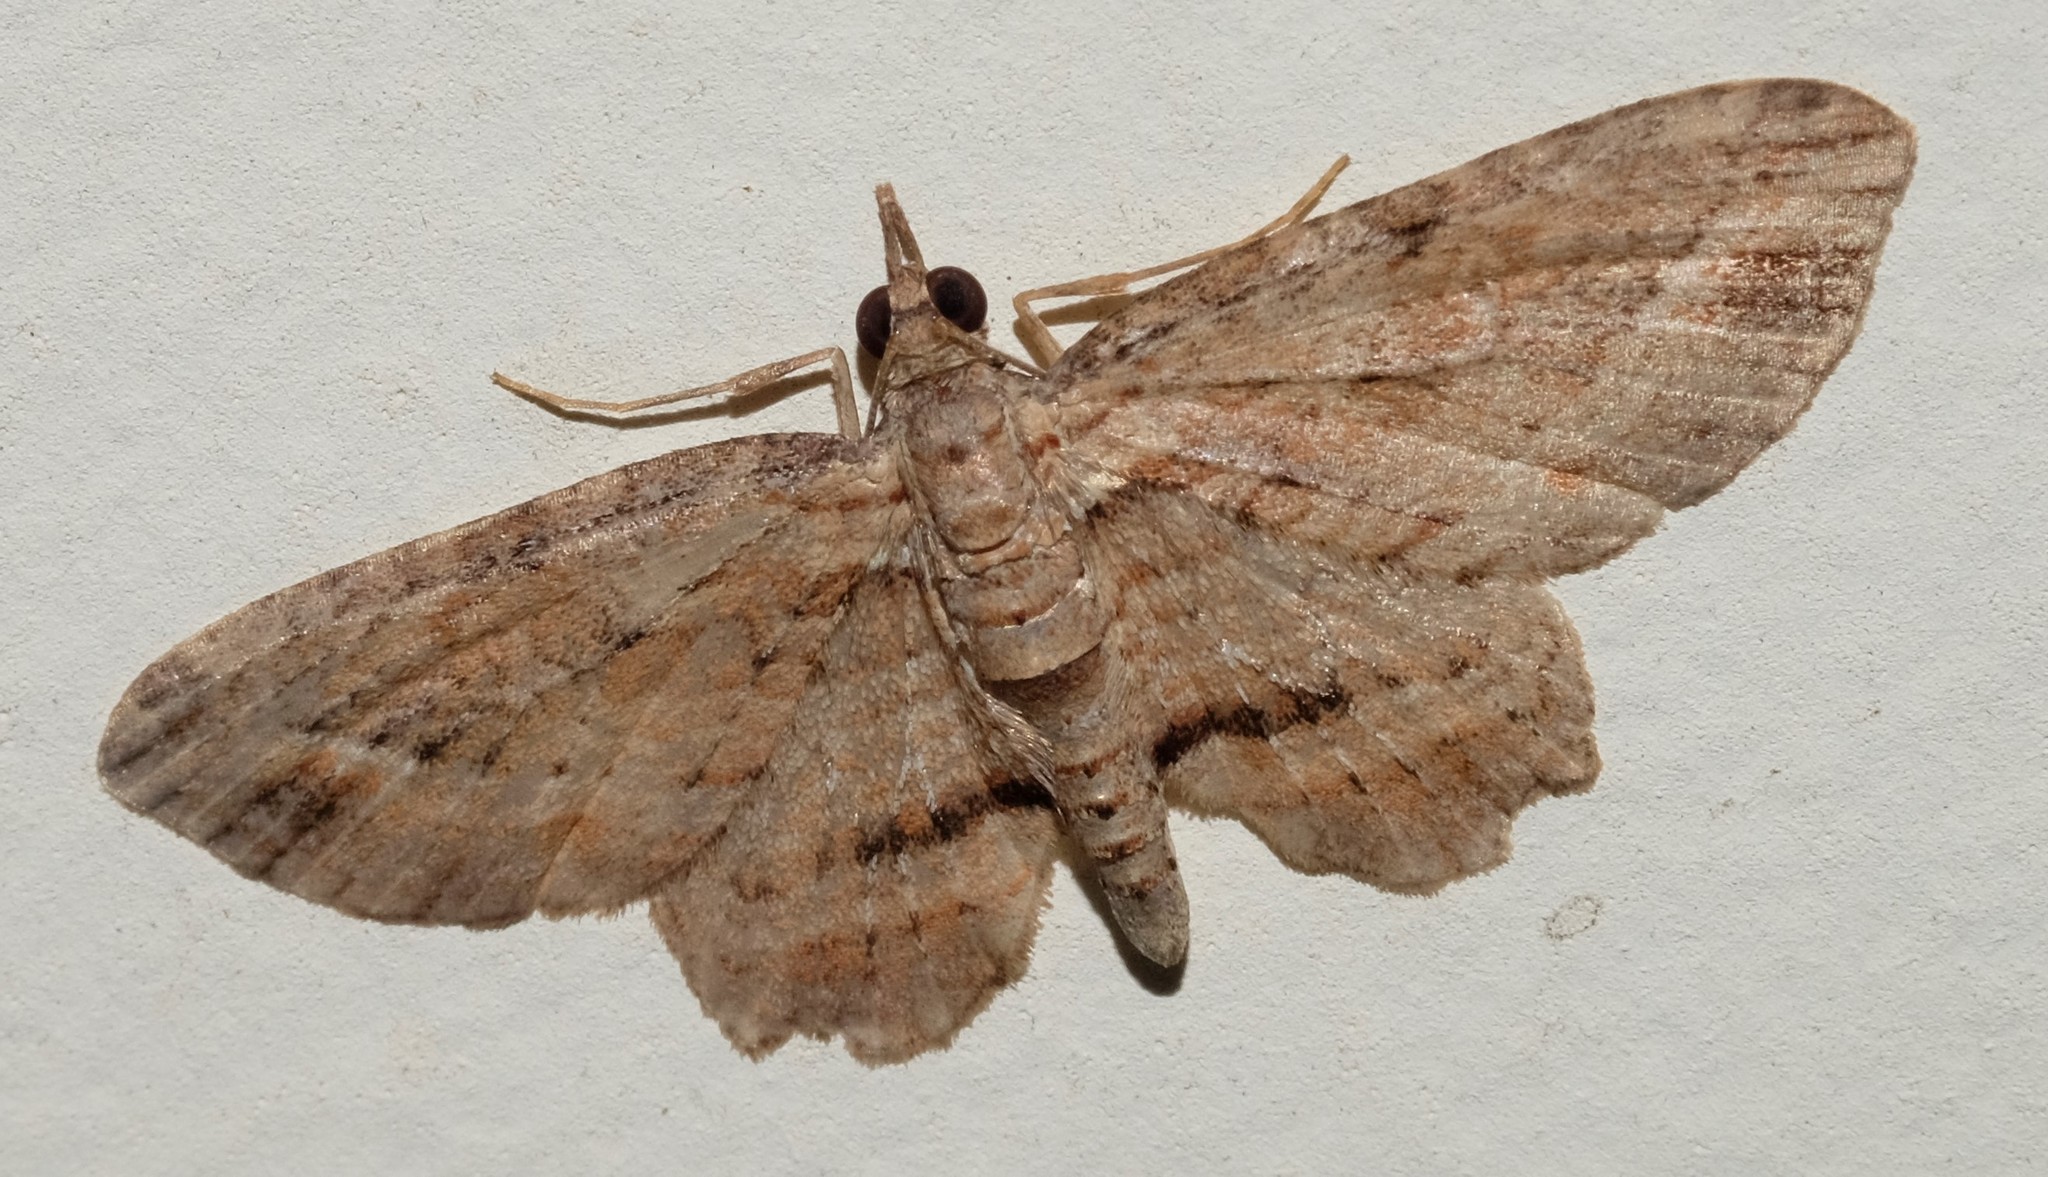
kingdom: Animalia
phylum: Arthropoda
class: Insecta
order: Lepidoptera
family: Geometridae
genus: Chloroclystis
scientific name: Chloroclystis filata
